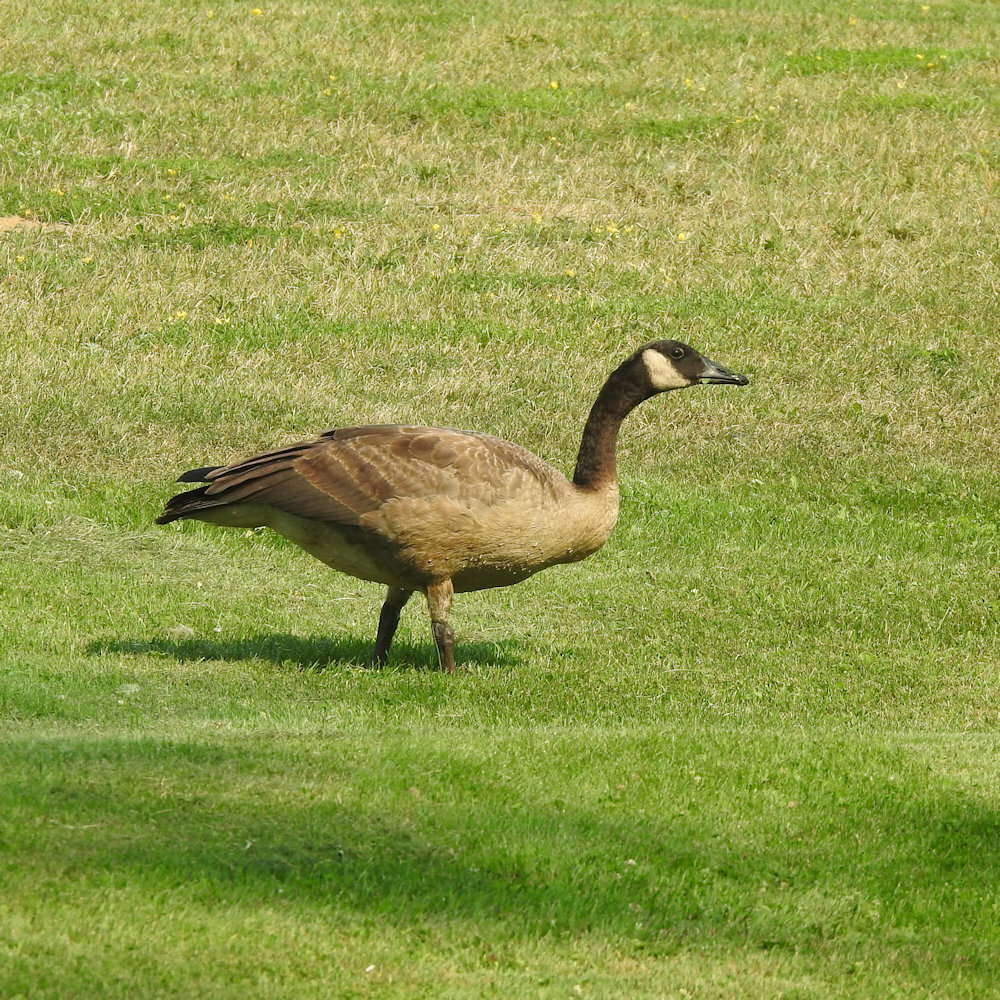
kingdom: Animalia
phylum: Chordata
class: Aves
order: Anseriformes
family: Anatidae
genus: Branta
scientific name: Branta canadensis
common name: Canada goose
